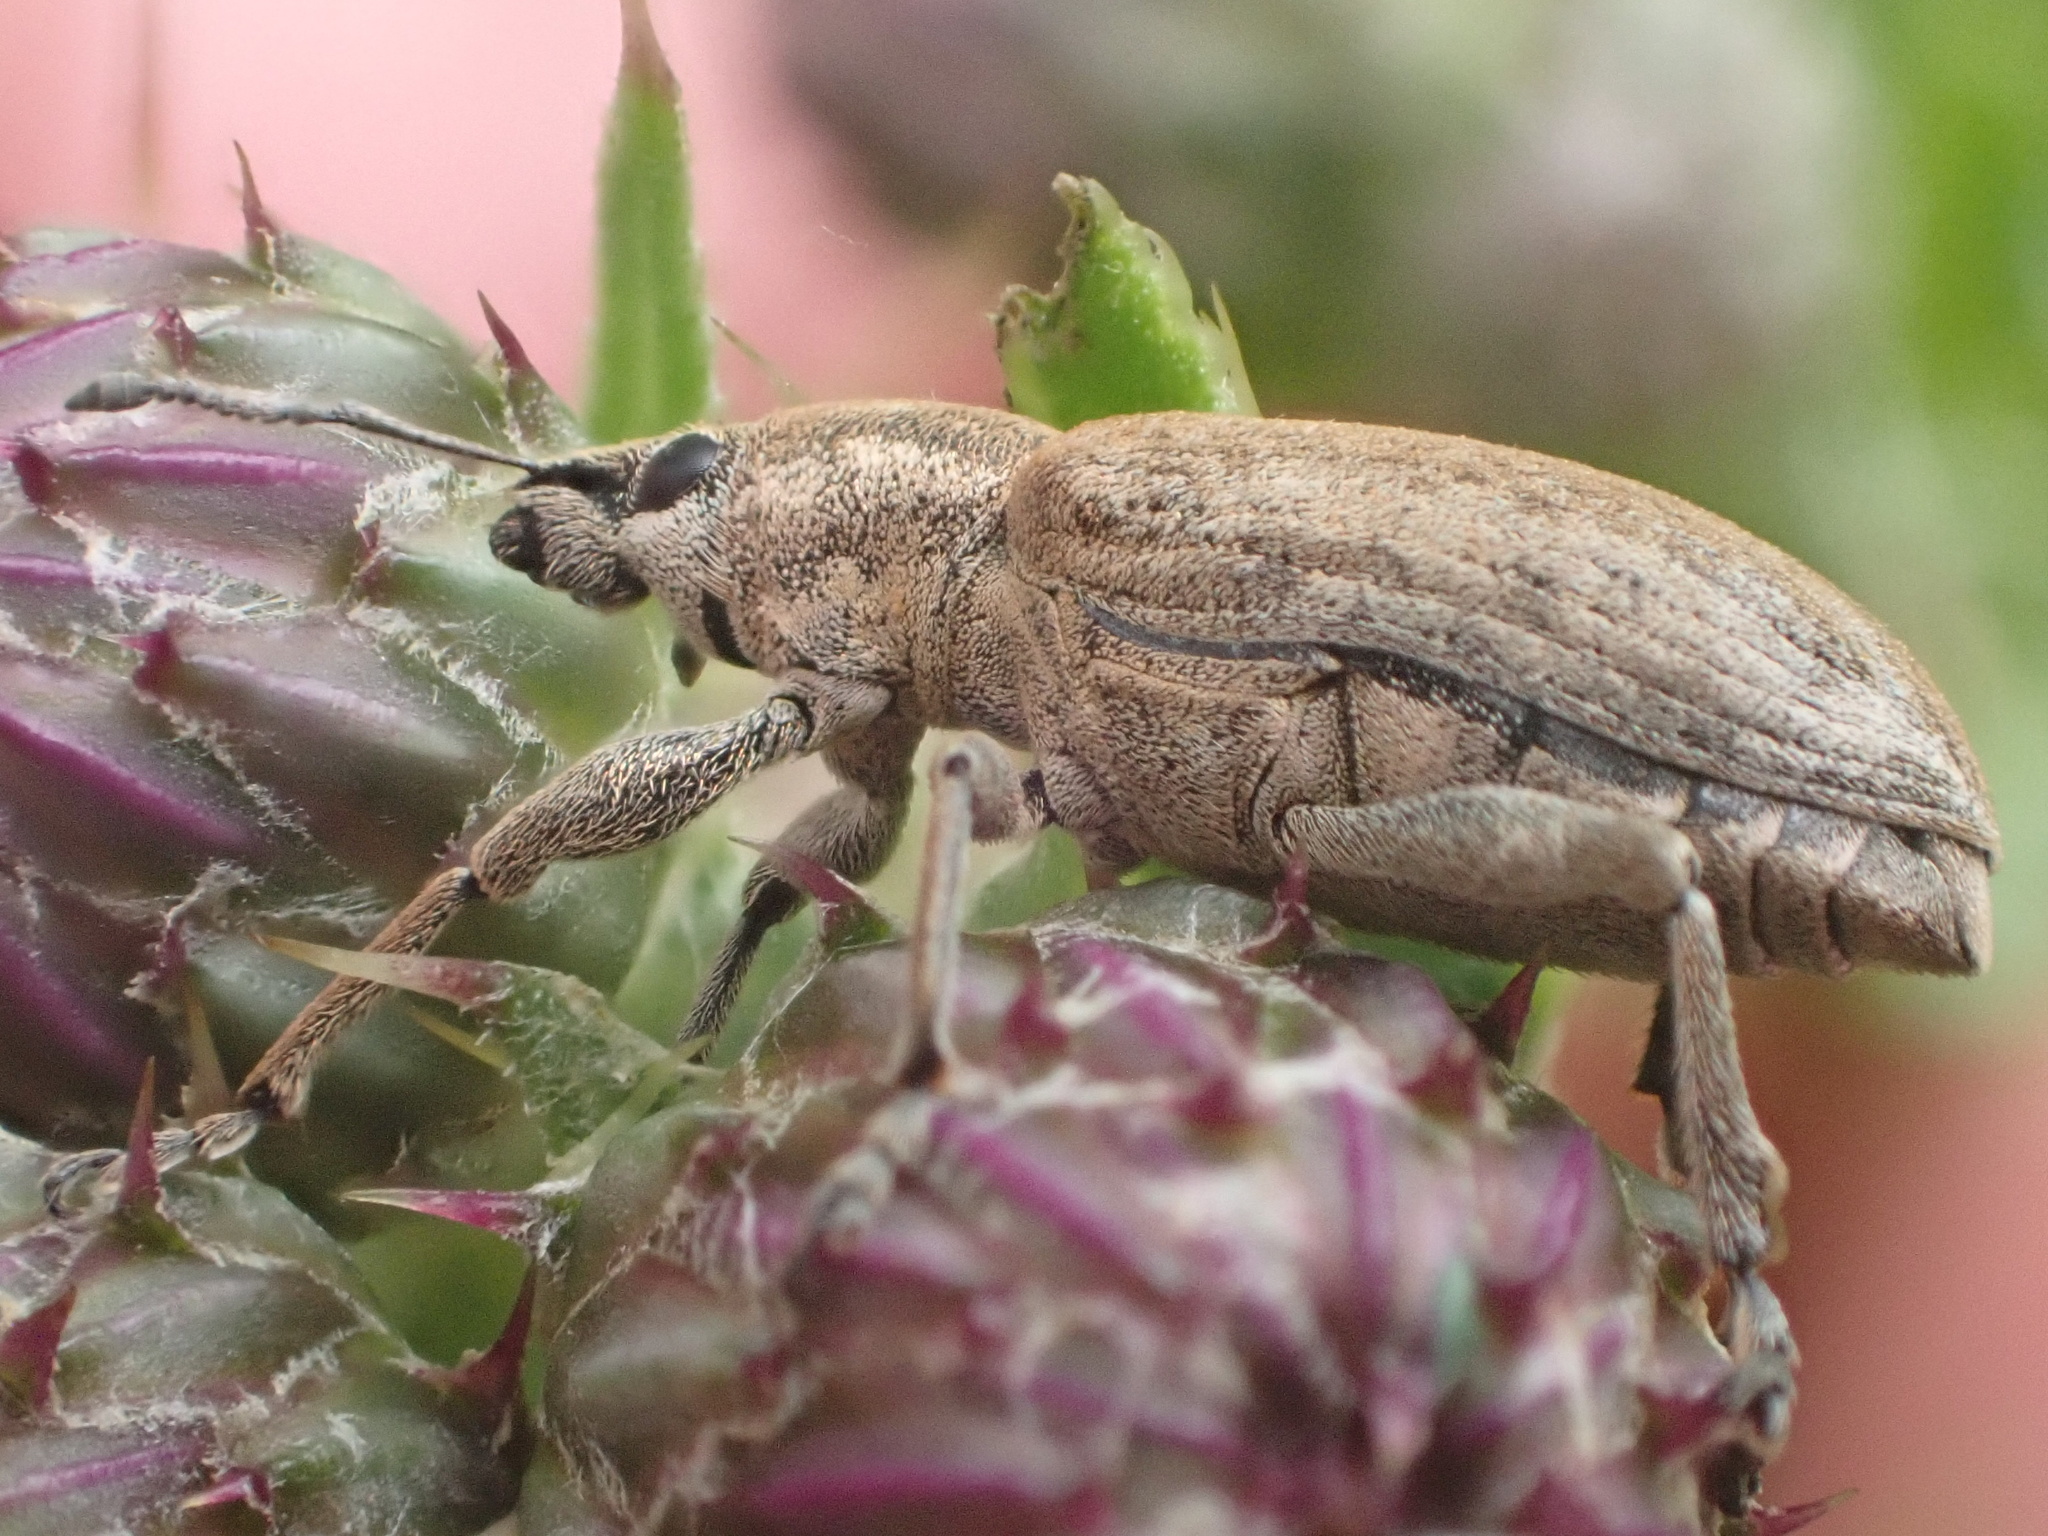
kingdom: Animalia
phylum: Arthropoda
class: Insecta
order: Coleoptera
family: Curculionidae
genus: Tanymecus
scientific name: Tanymecus palliatus
